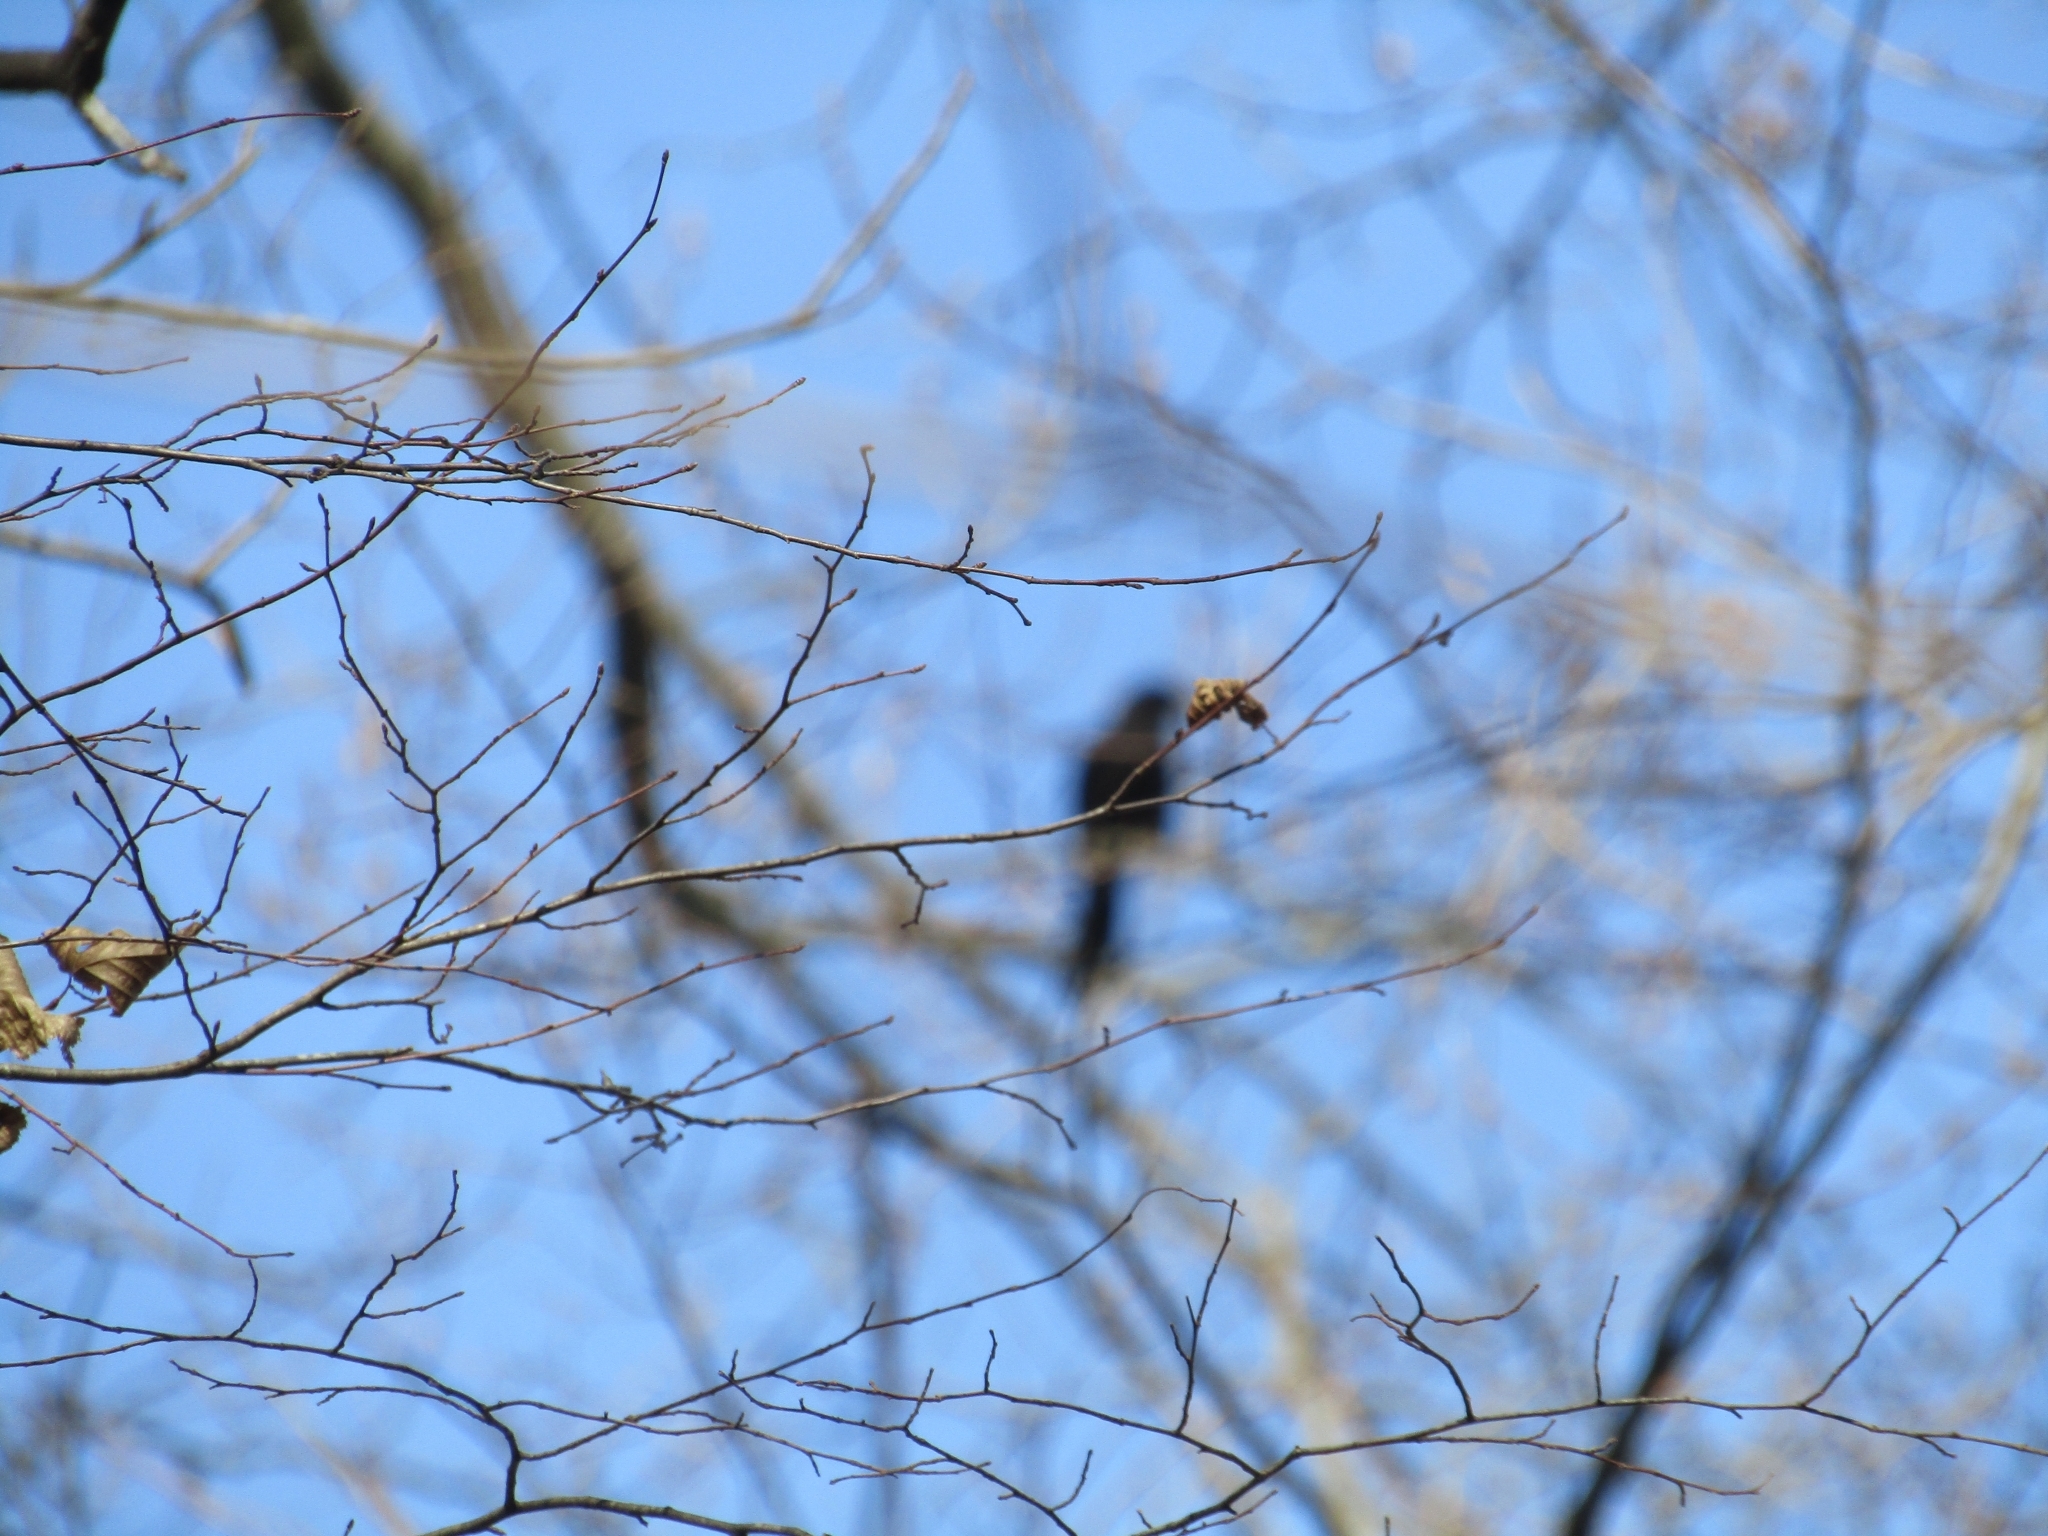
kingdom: Animalia
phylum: Chordata
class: Aves
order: Passeriformes
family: Icteridae
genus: Quiscalus
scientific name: Quiscalus quiscula
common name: Common grackle
